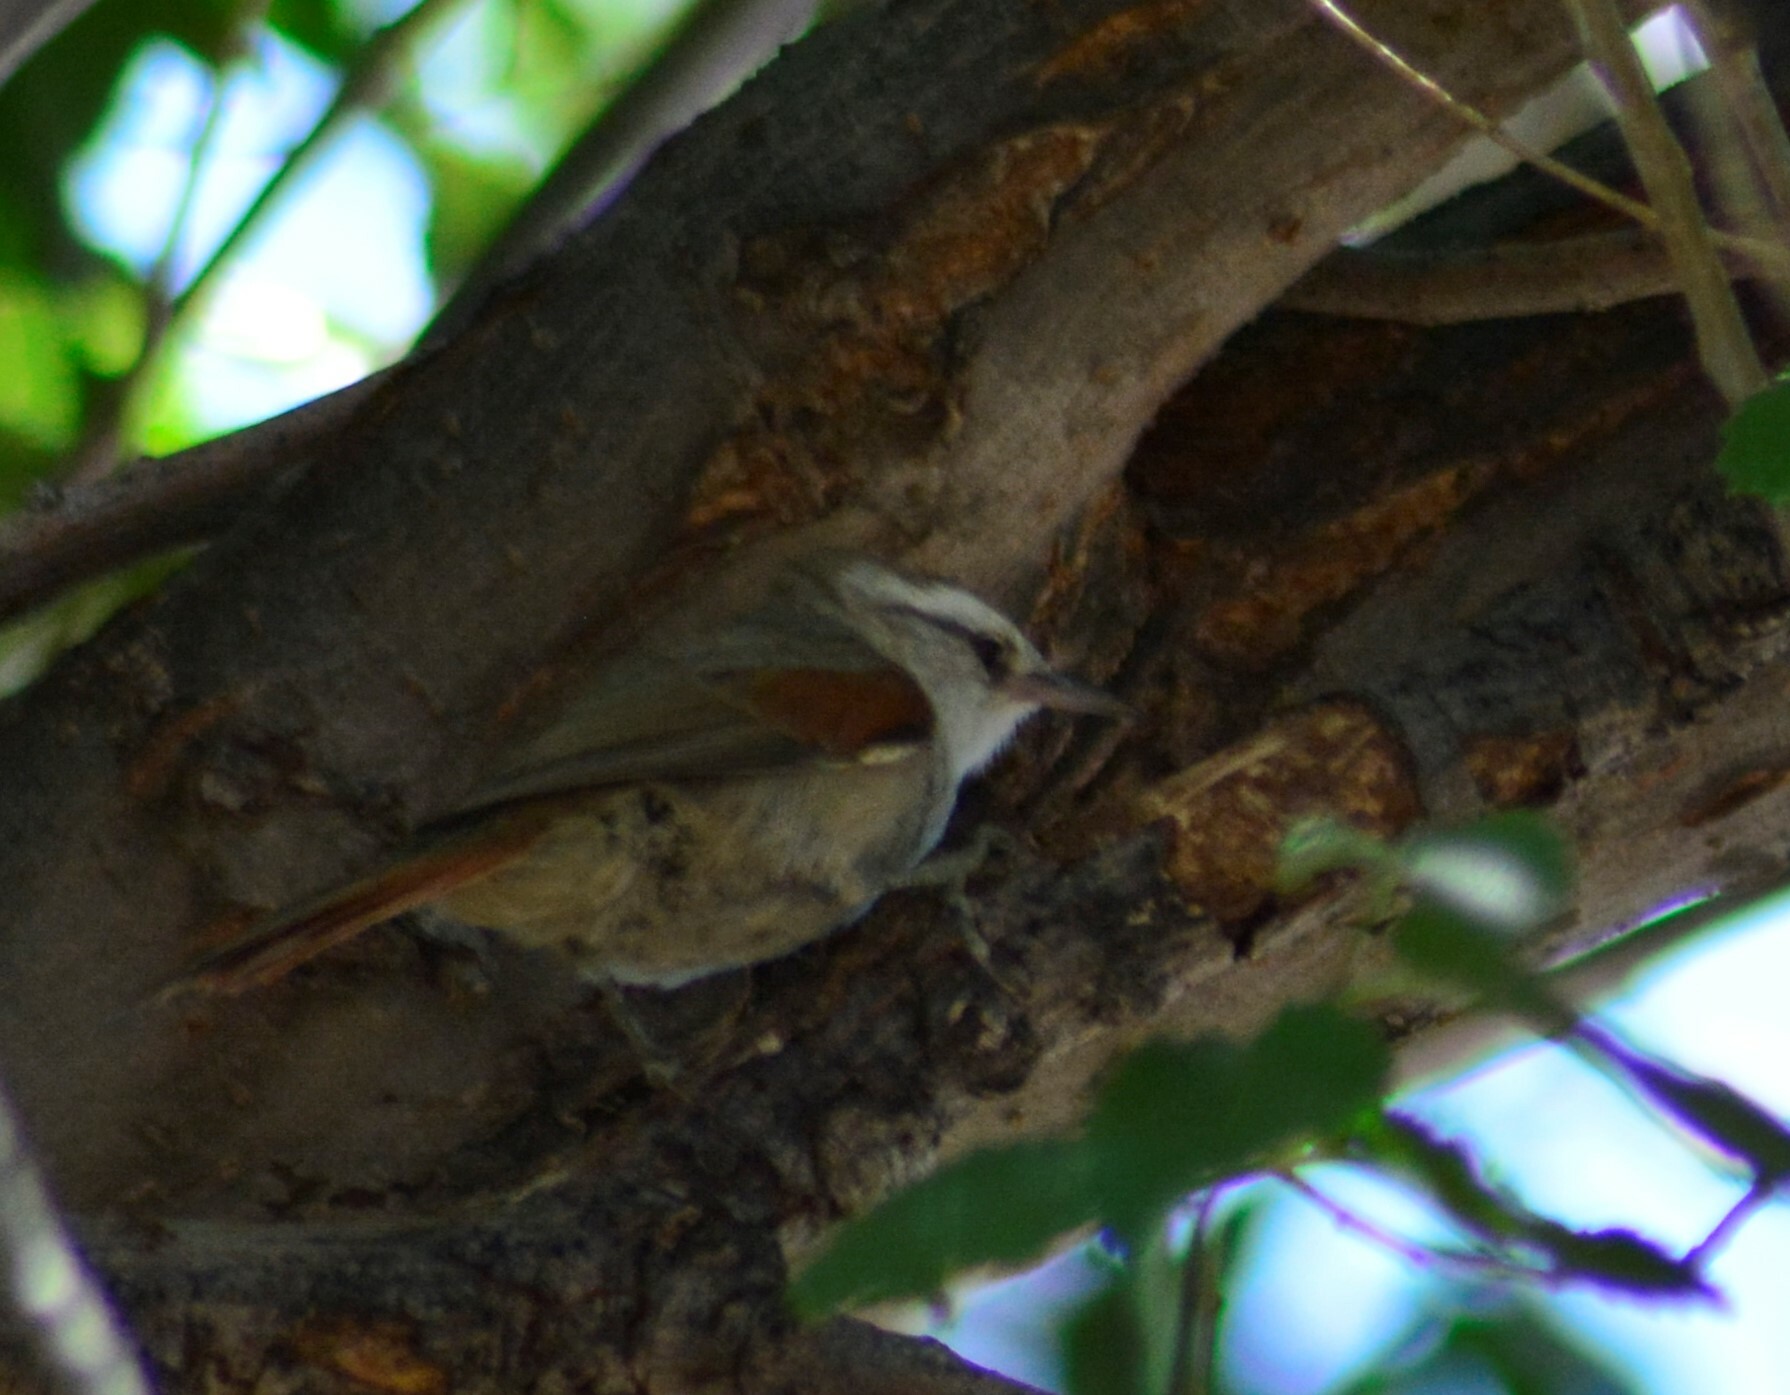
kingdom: Animalia
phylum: Chordata
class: Aves
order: Passeriformes
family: Furnariidae
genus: Cranioleuca
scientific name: Cranioleuca pyrrhophia
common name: Stripe-crowned spinetail
